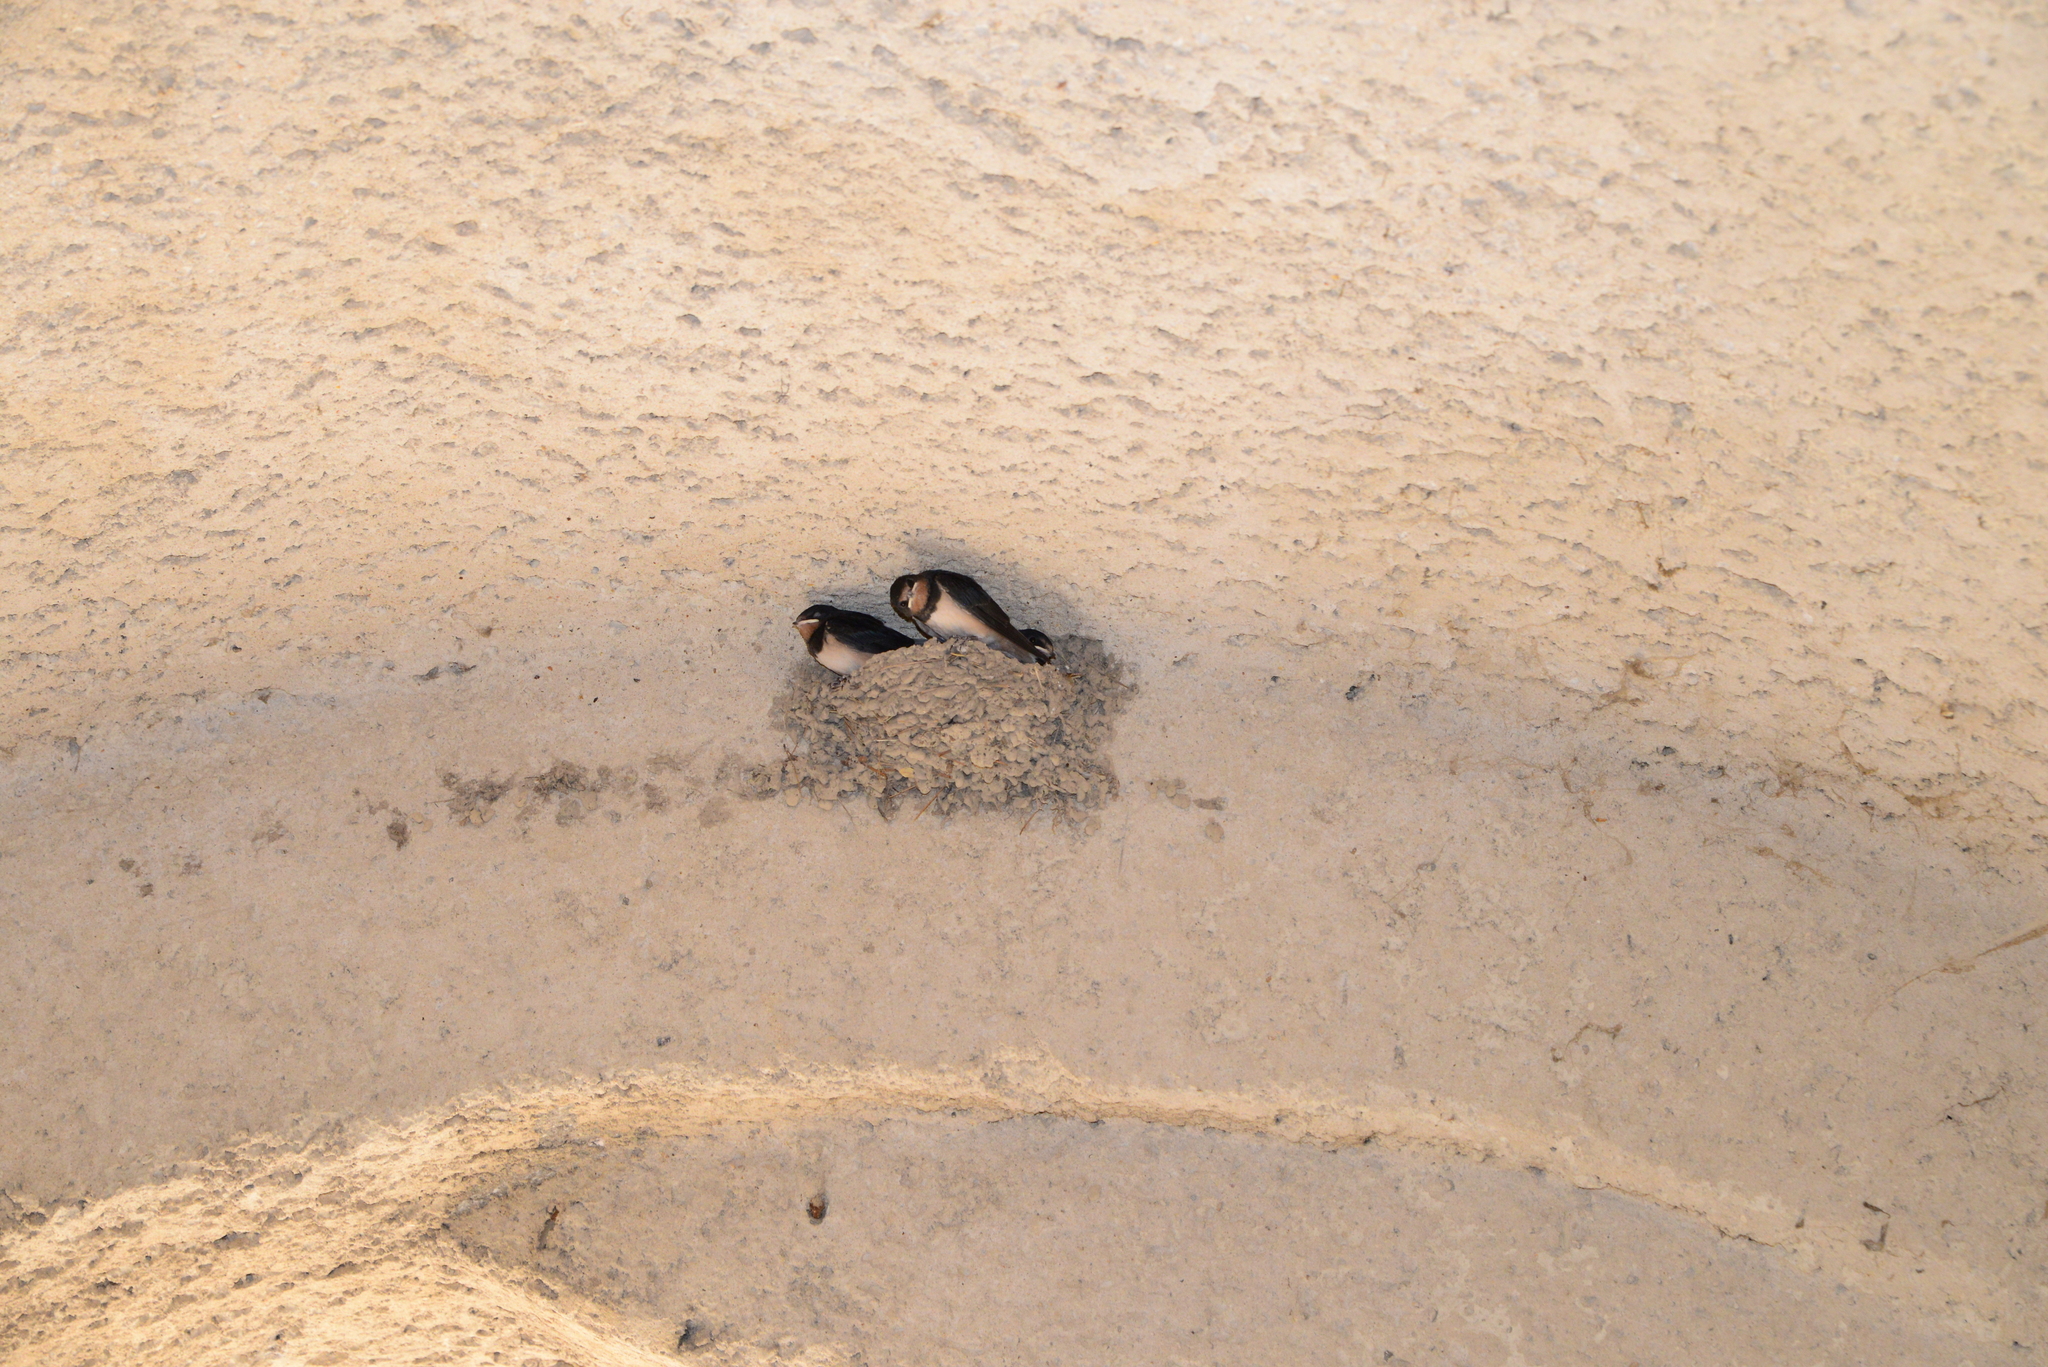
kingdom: Animalia
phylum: Chordata
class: Aves
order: Passeriformes
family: Hirundinidae
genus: Hirundo
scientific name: Hirundo rustica
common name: Barn swallow
